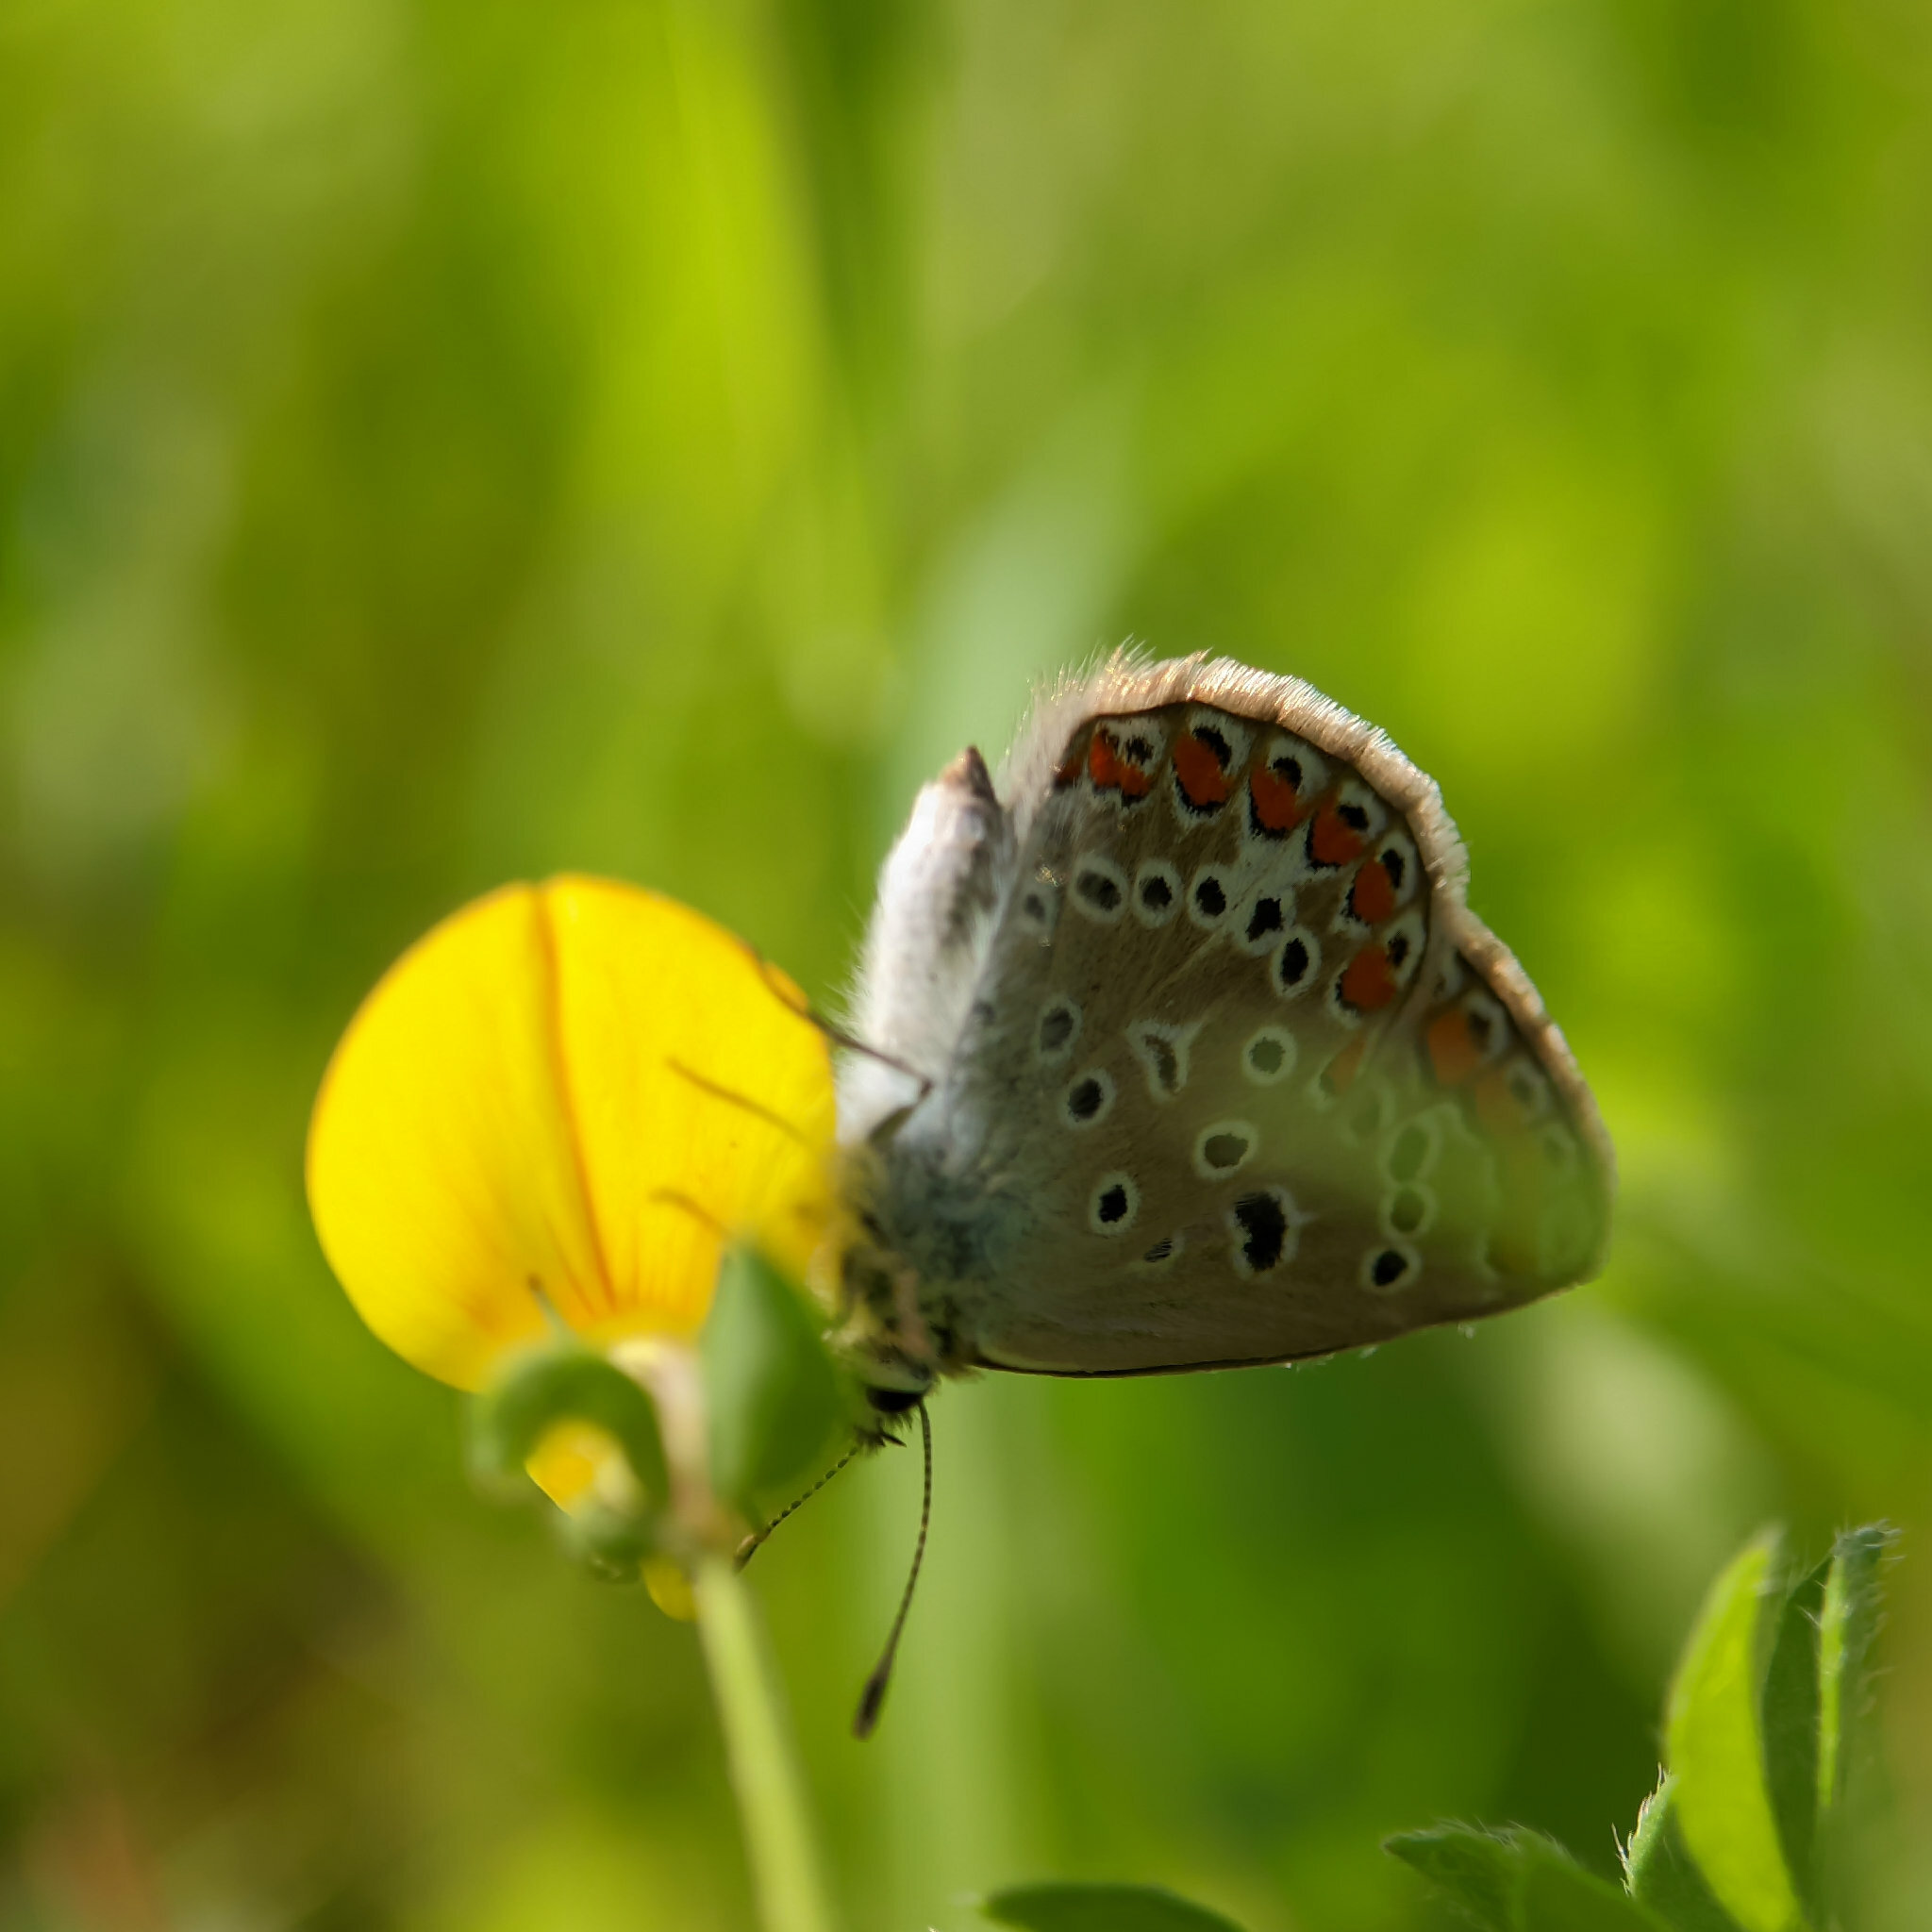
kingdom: Animalia
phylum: Arthropoda
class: Insecta
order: Lepidoptera
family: Lycaenidae
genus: Polyommatus
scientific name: Polyommatus icarus
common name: Common blue
